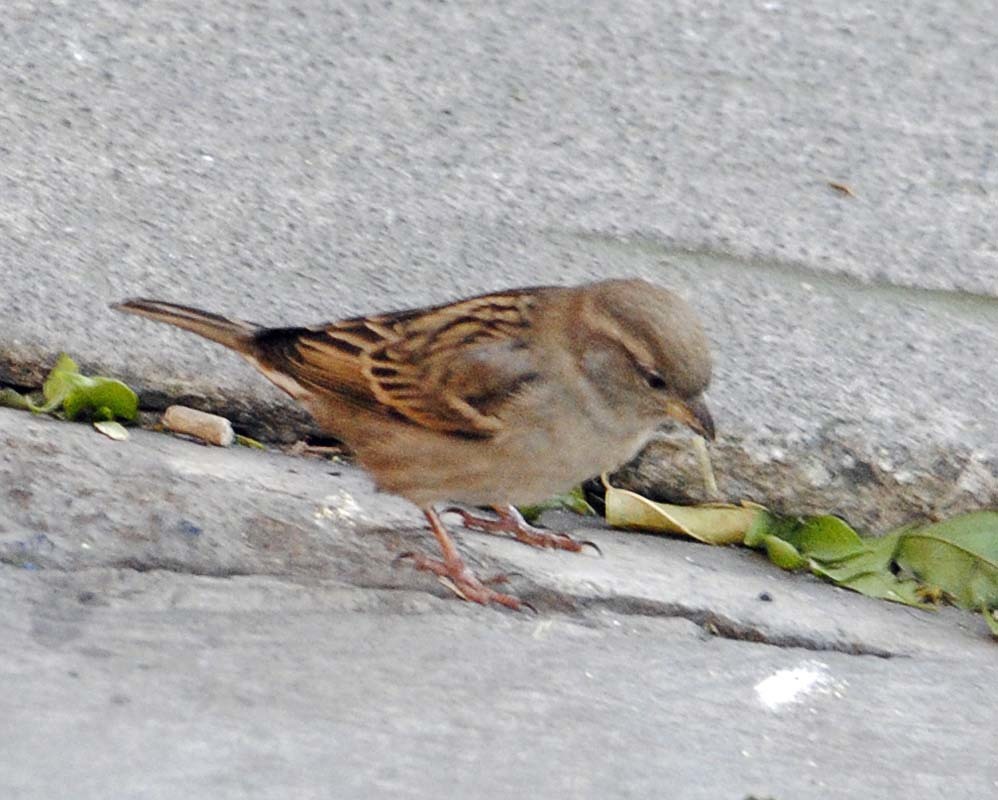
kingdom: Animalia
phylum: Chordata
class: Aves
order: Passeriformes
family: Passeridae
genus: Passer
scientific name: Passer domesticus
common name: House sparrow
